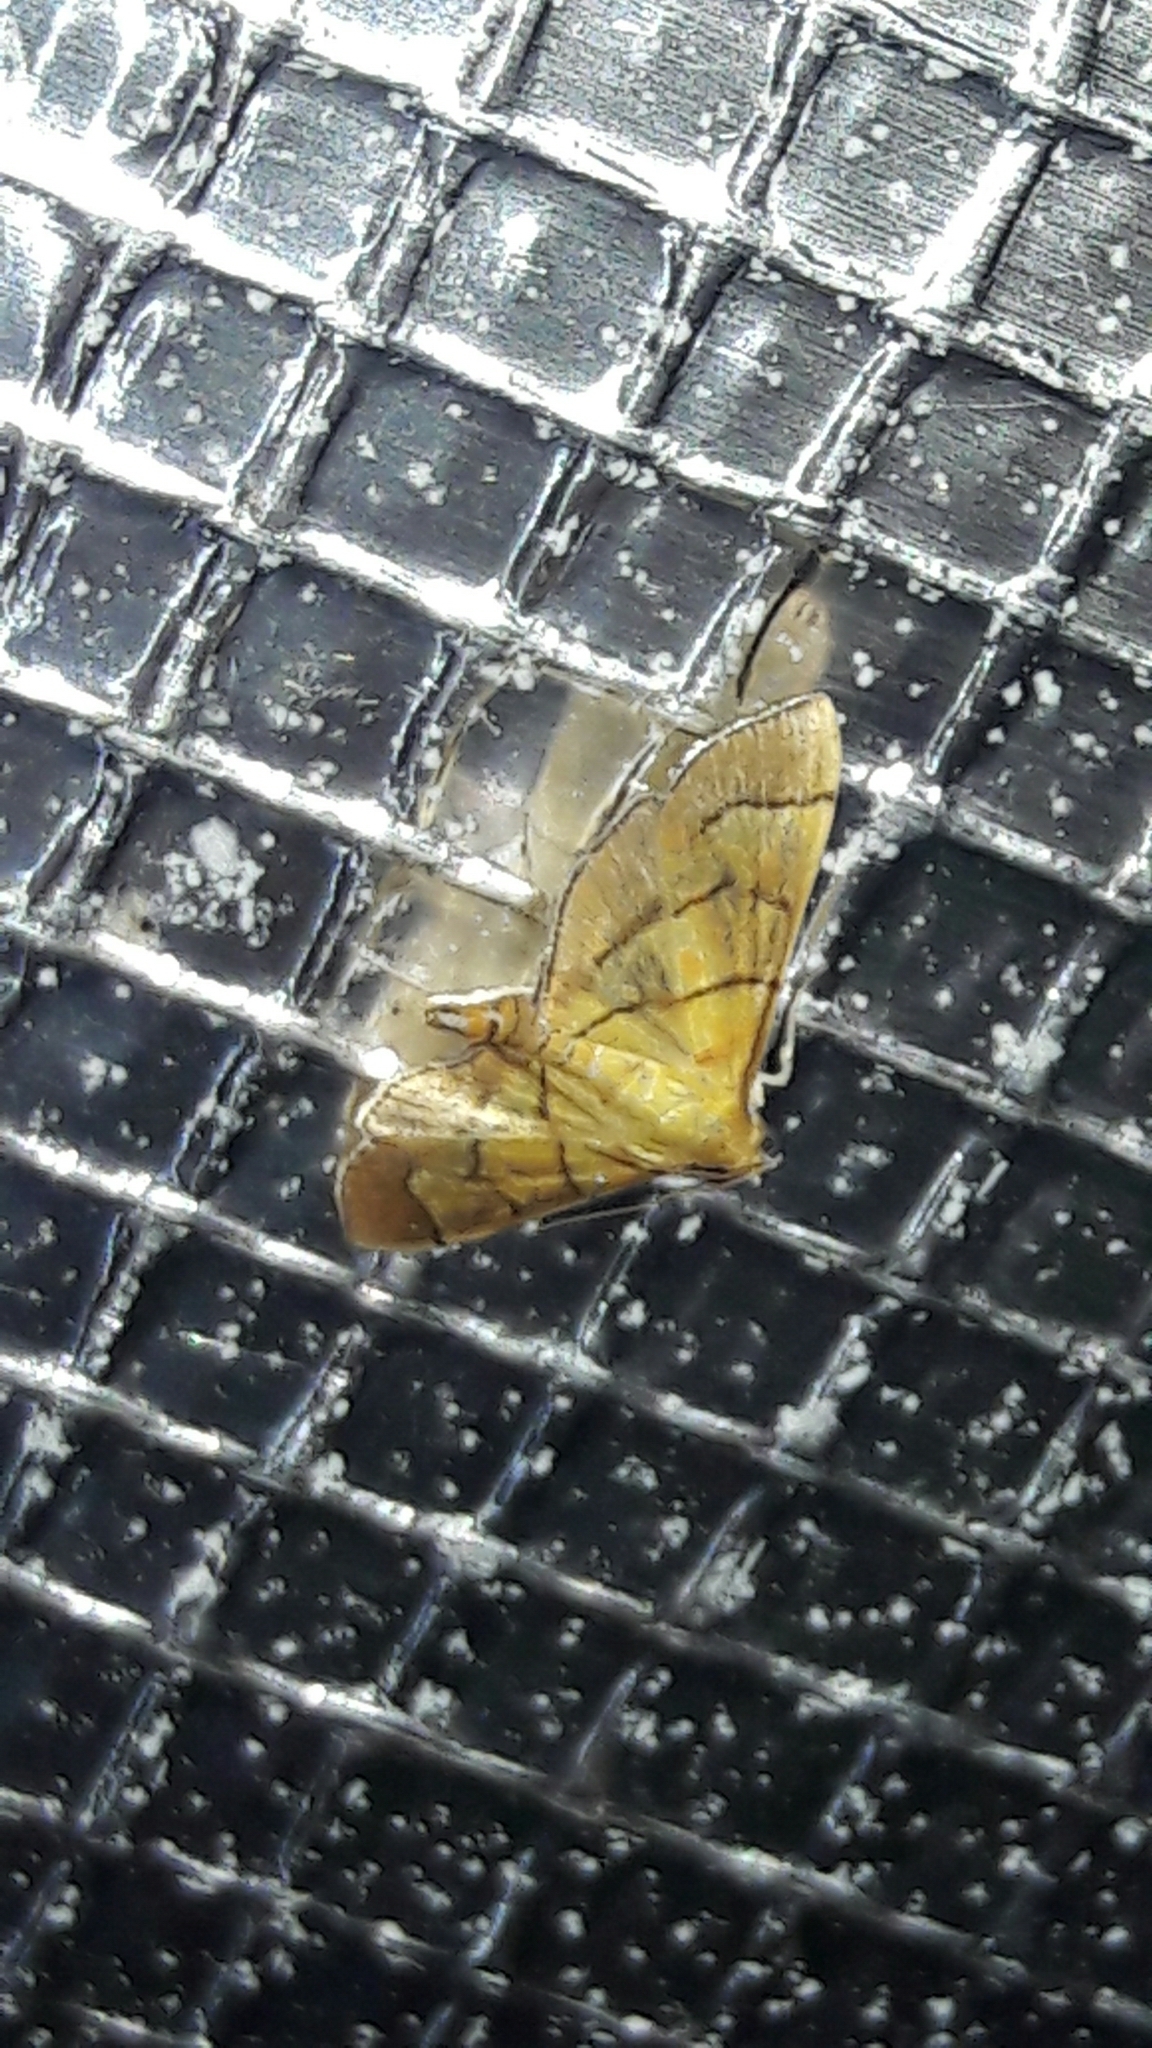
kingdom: Animalia
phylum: Arthropoda
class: Insecta
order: Lepidoptera
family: Crambidae
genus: Salbia
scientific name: Salbia haemorrhoidalis
